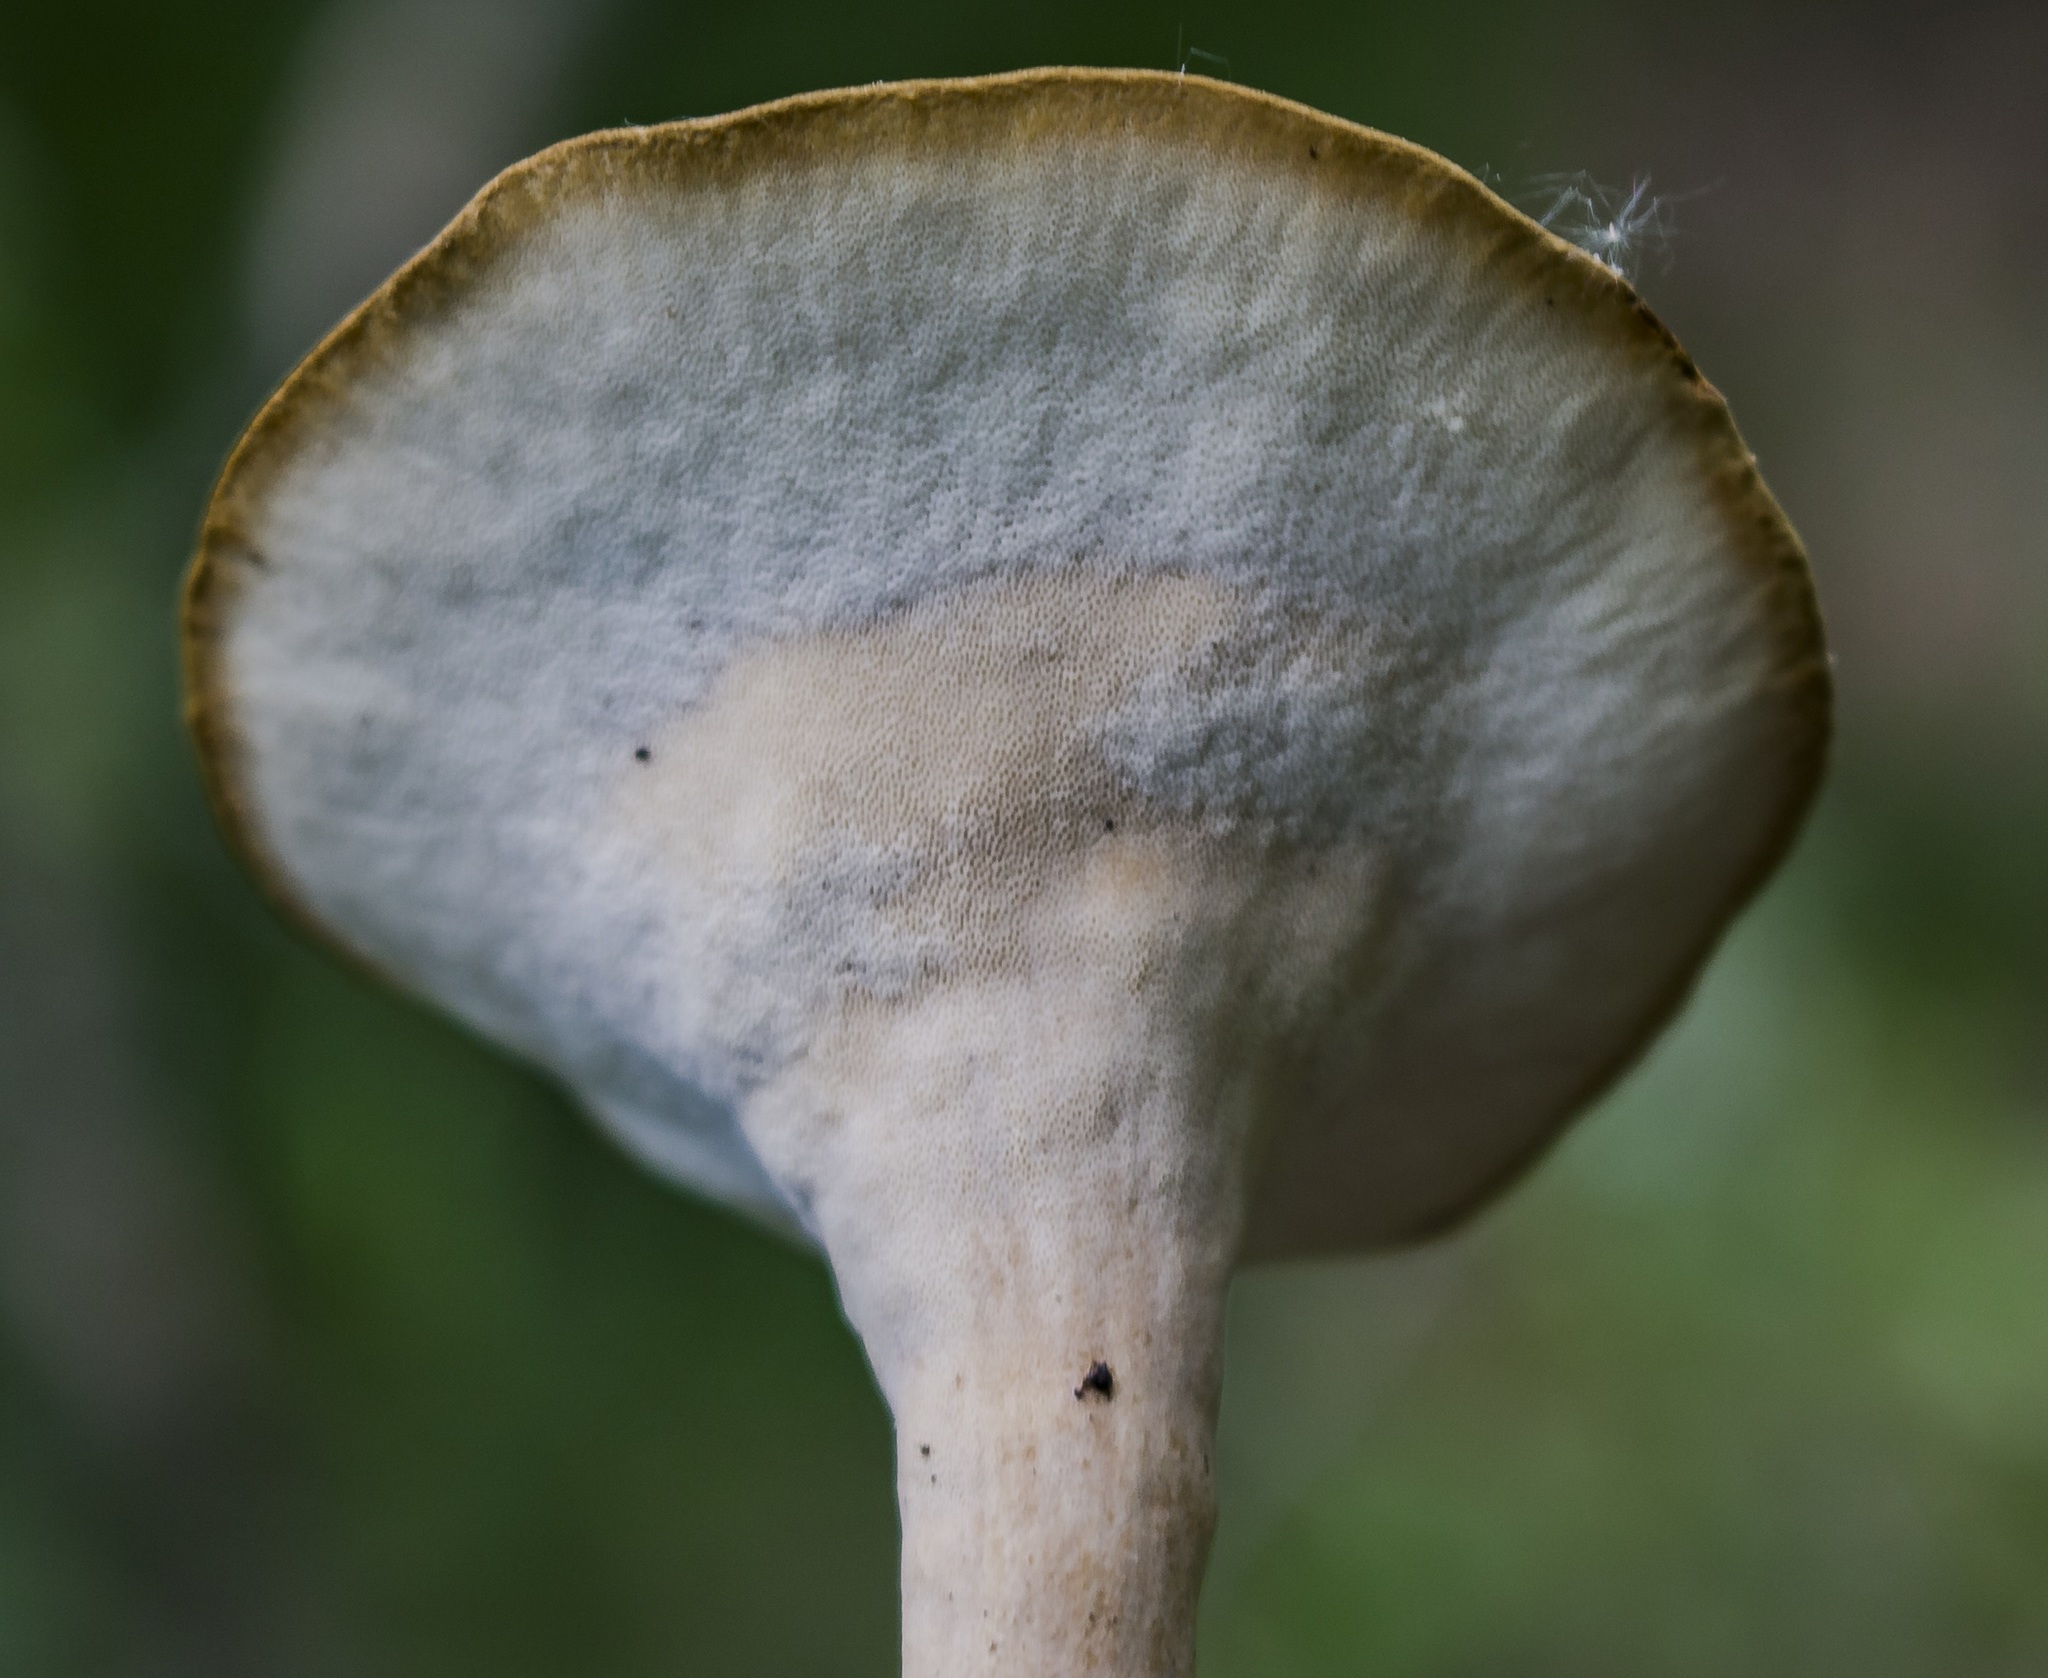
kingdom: Fungi
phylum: Basidiomycota
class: Agaricomycetes
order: Polyporales
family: Polyporaceae
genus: Cerioporus
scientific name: Cerioporus varius
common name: Elegant polypore
